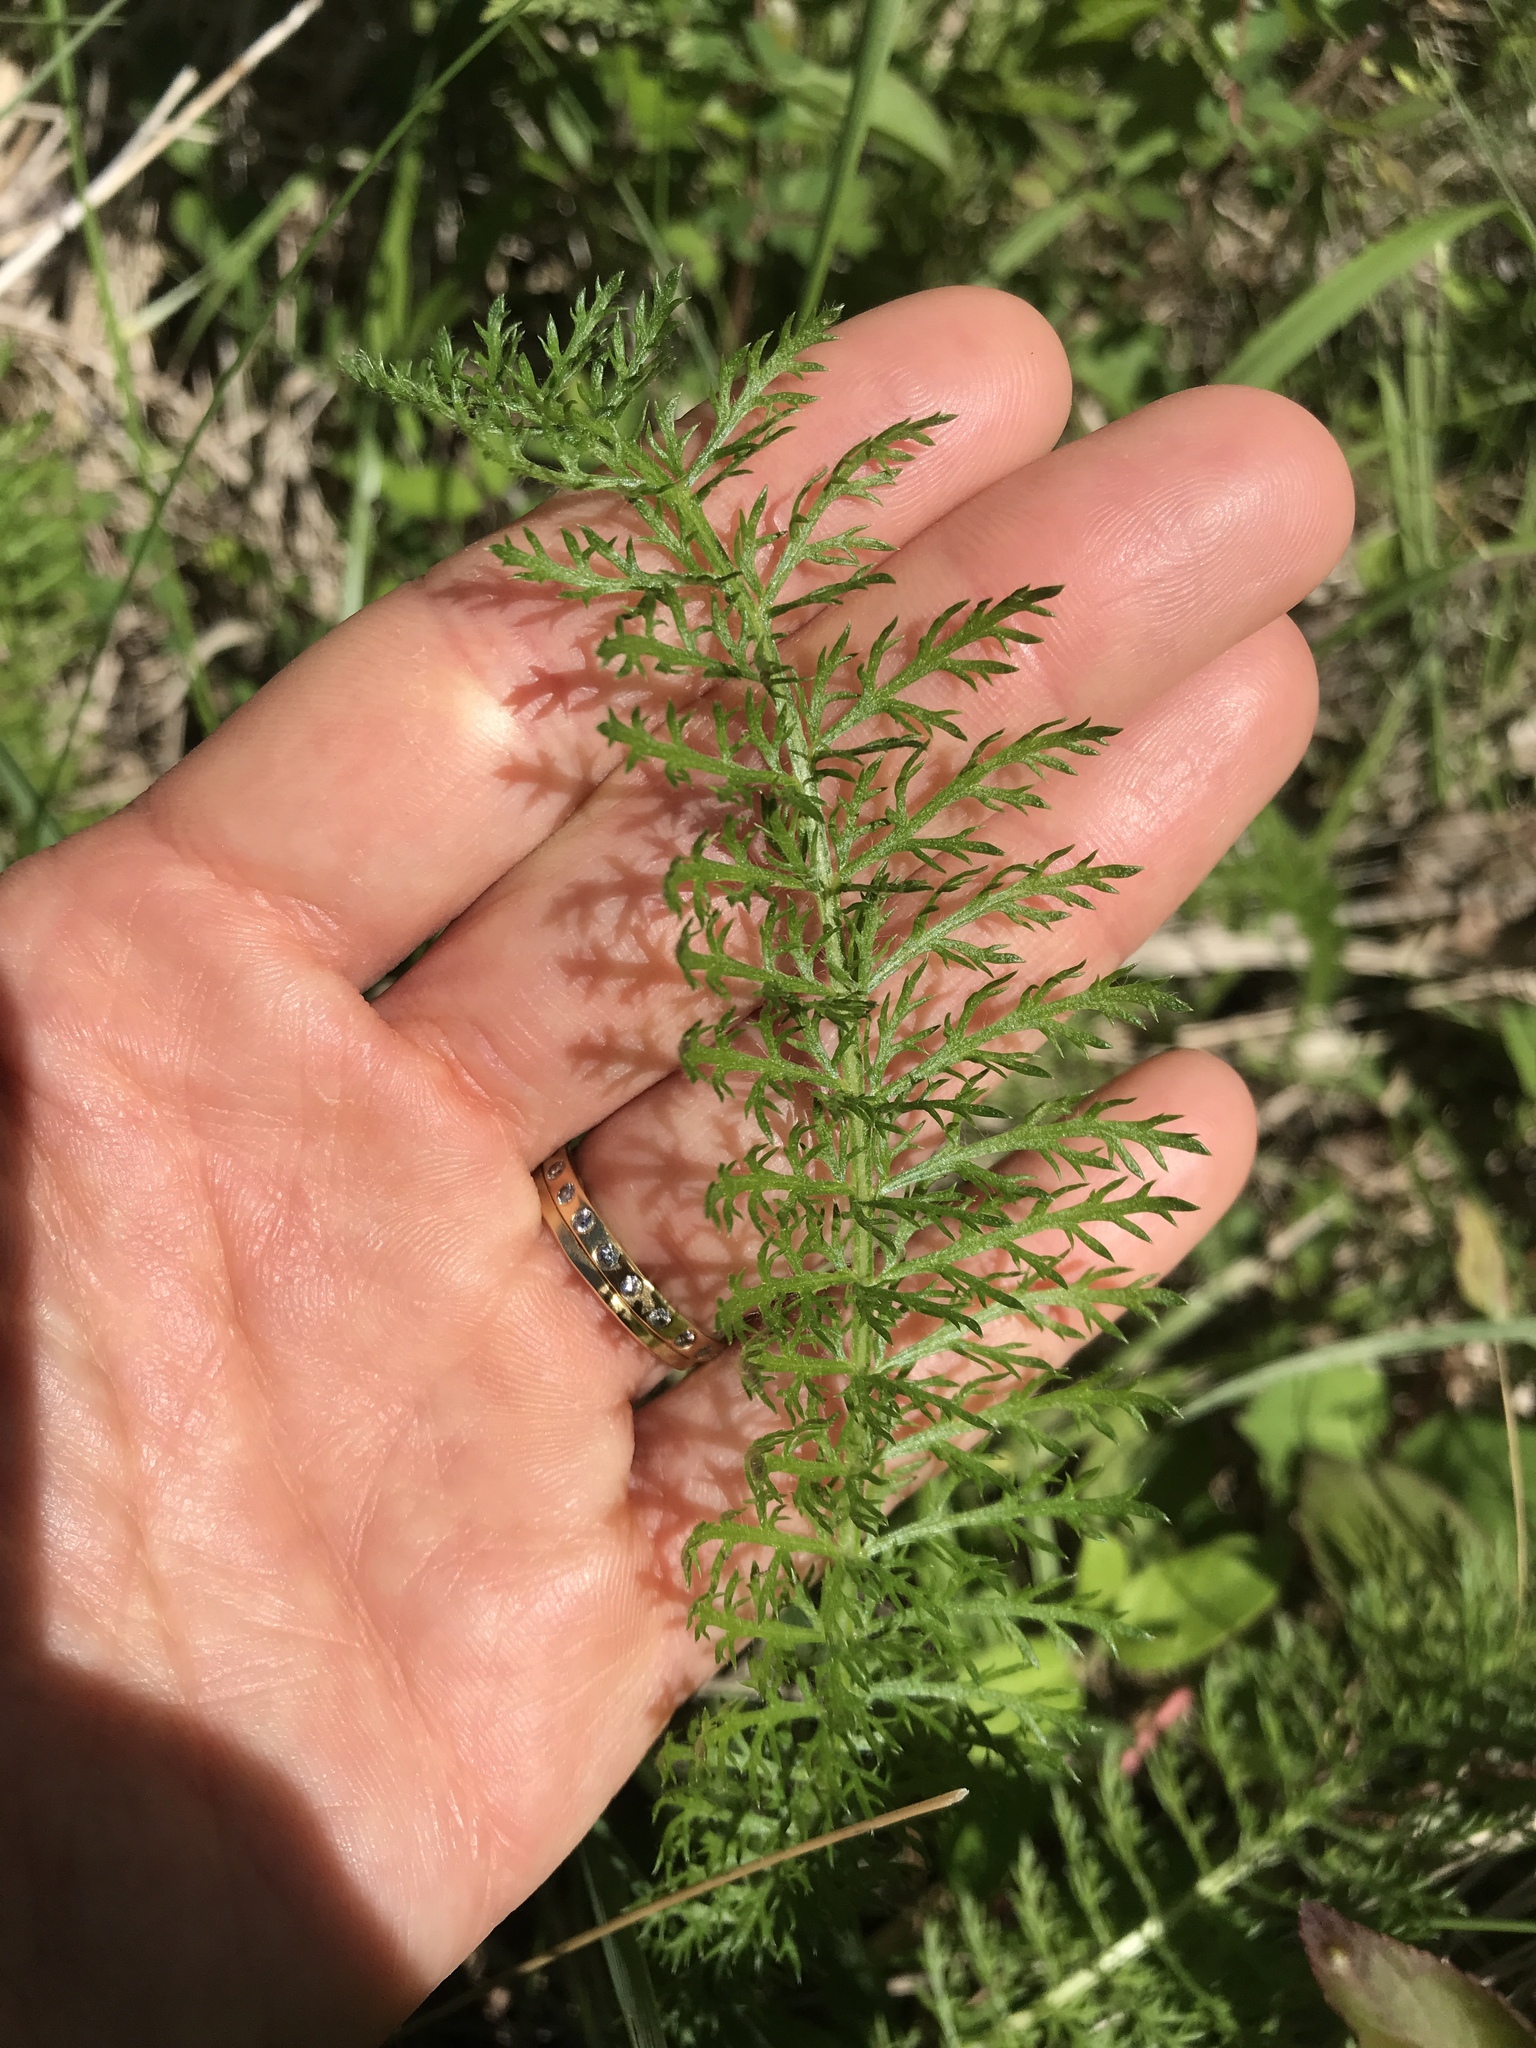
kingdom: Plantae
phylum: Tracheophyta
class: Magnoliopsida
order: Asterales
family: Asteraceae
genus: Achillea
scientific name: Achillea millefolium
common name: Yarrow
